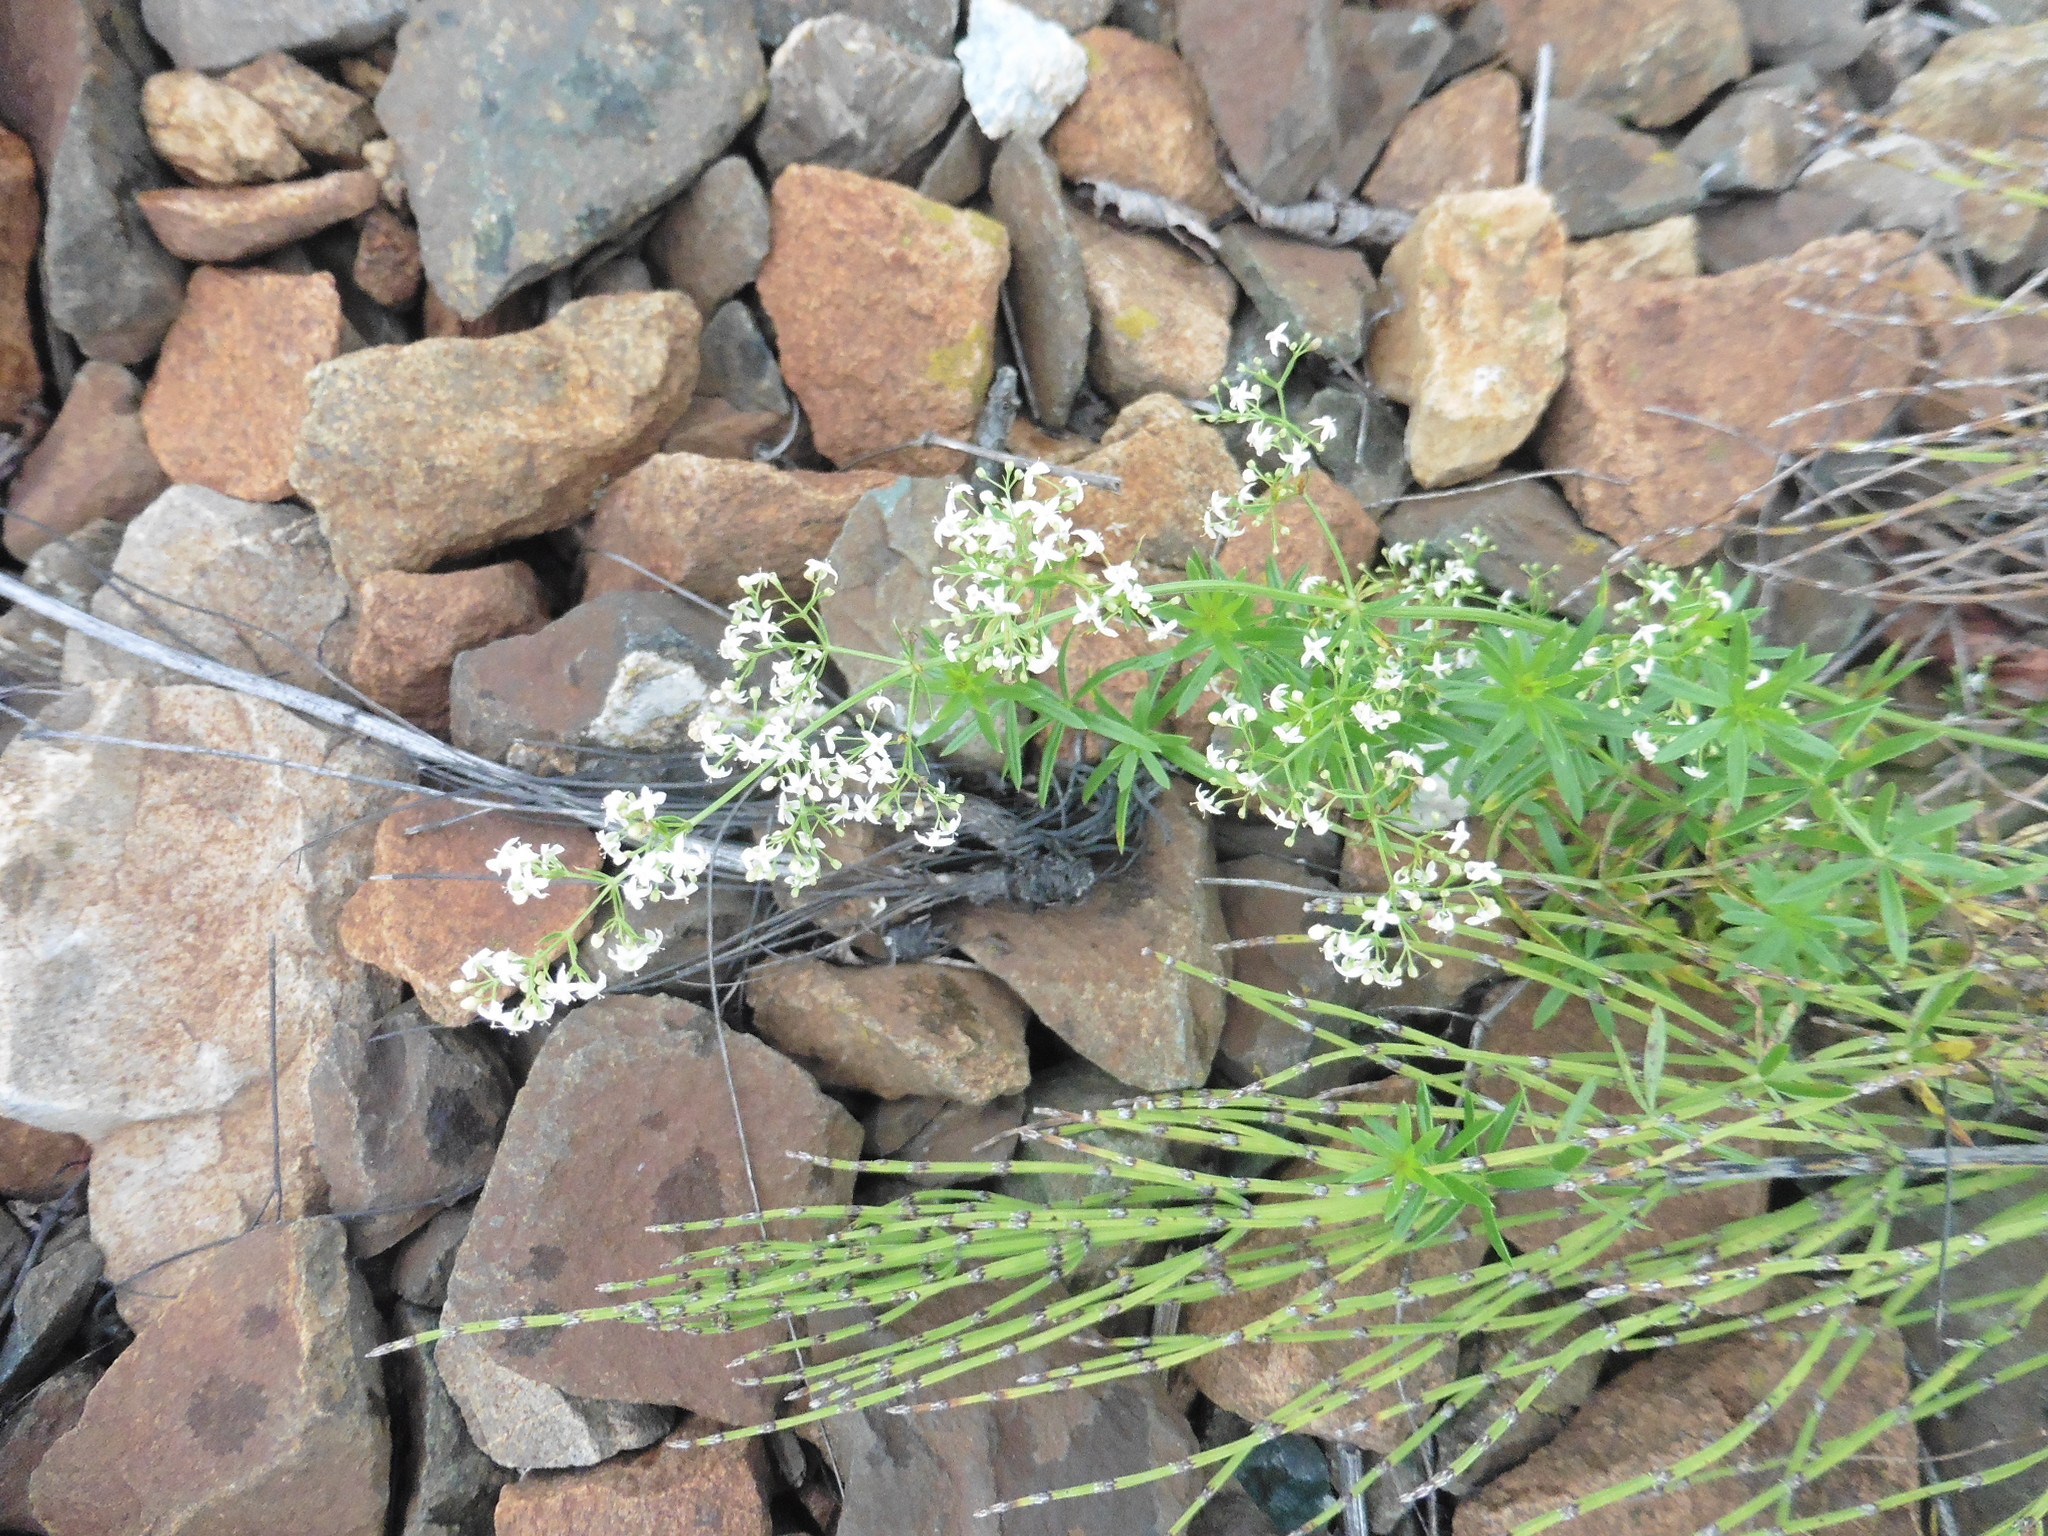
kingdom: Plantae
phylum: Tracheophyta
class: Magnoliopsida
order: Gentianales
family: Rubiaceae
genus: Galium
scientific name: Galium mollugo
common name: Hedge bedstraw
